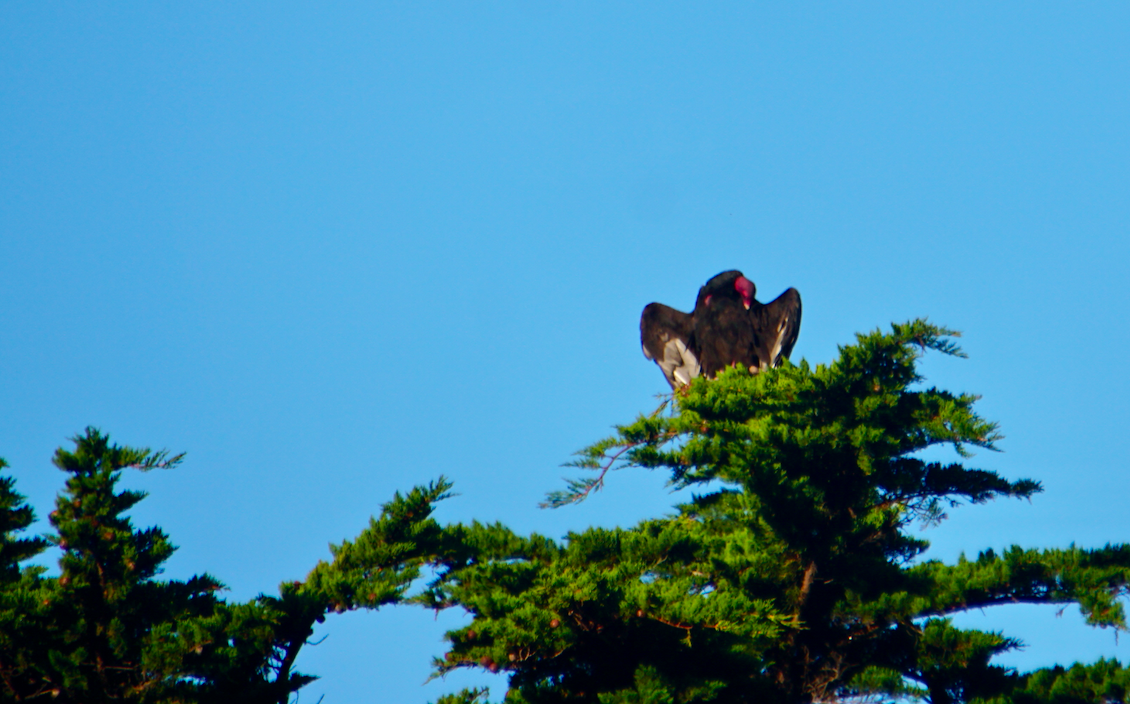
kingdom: Animalia
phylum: Chordata
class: Aves
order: Accipitriformes
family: Cathartidae
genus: Cathartes
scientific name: Cathartes aura
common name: Turkey vulture
